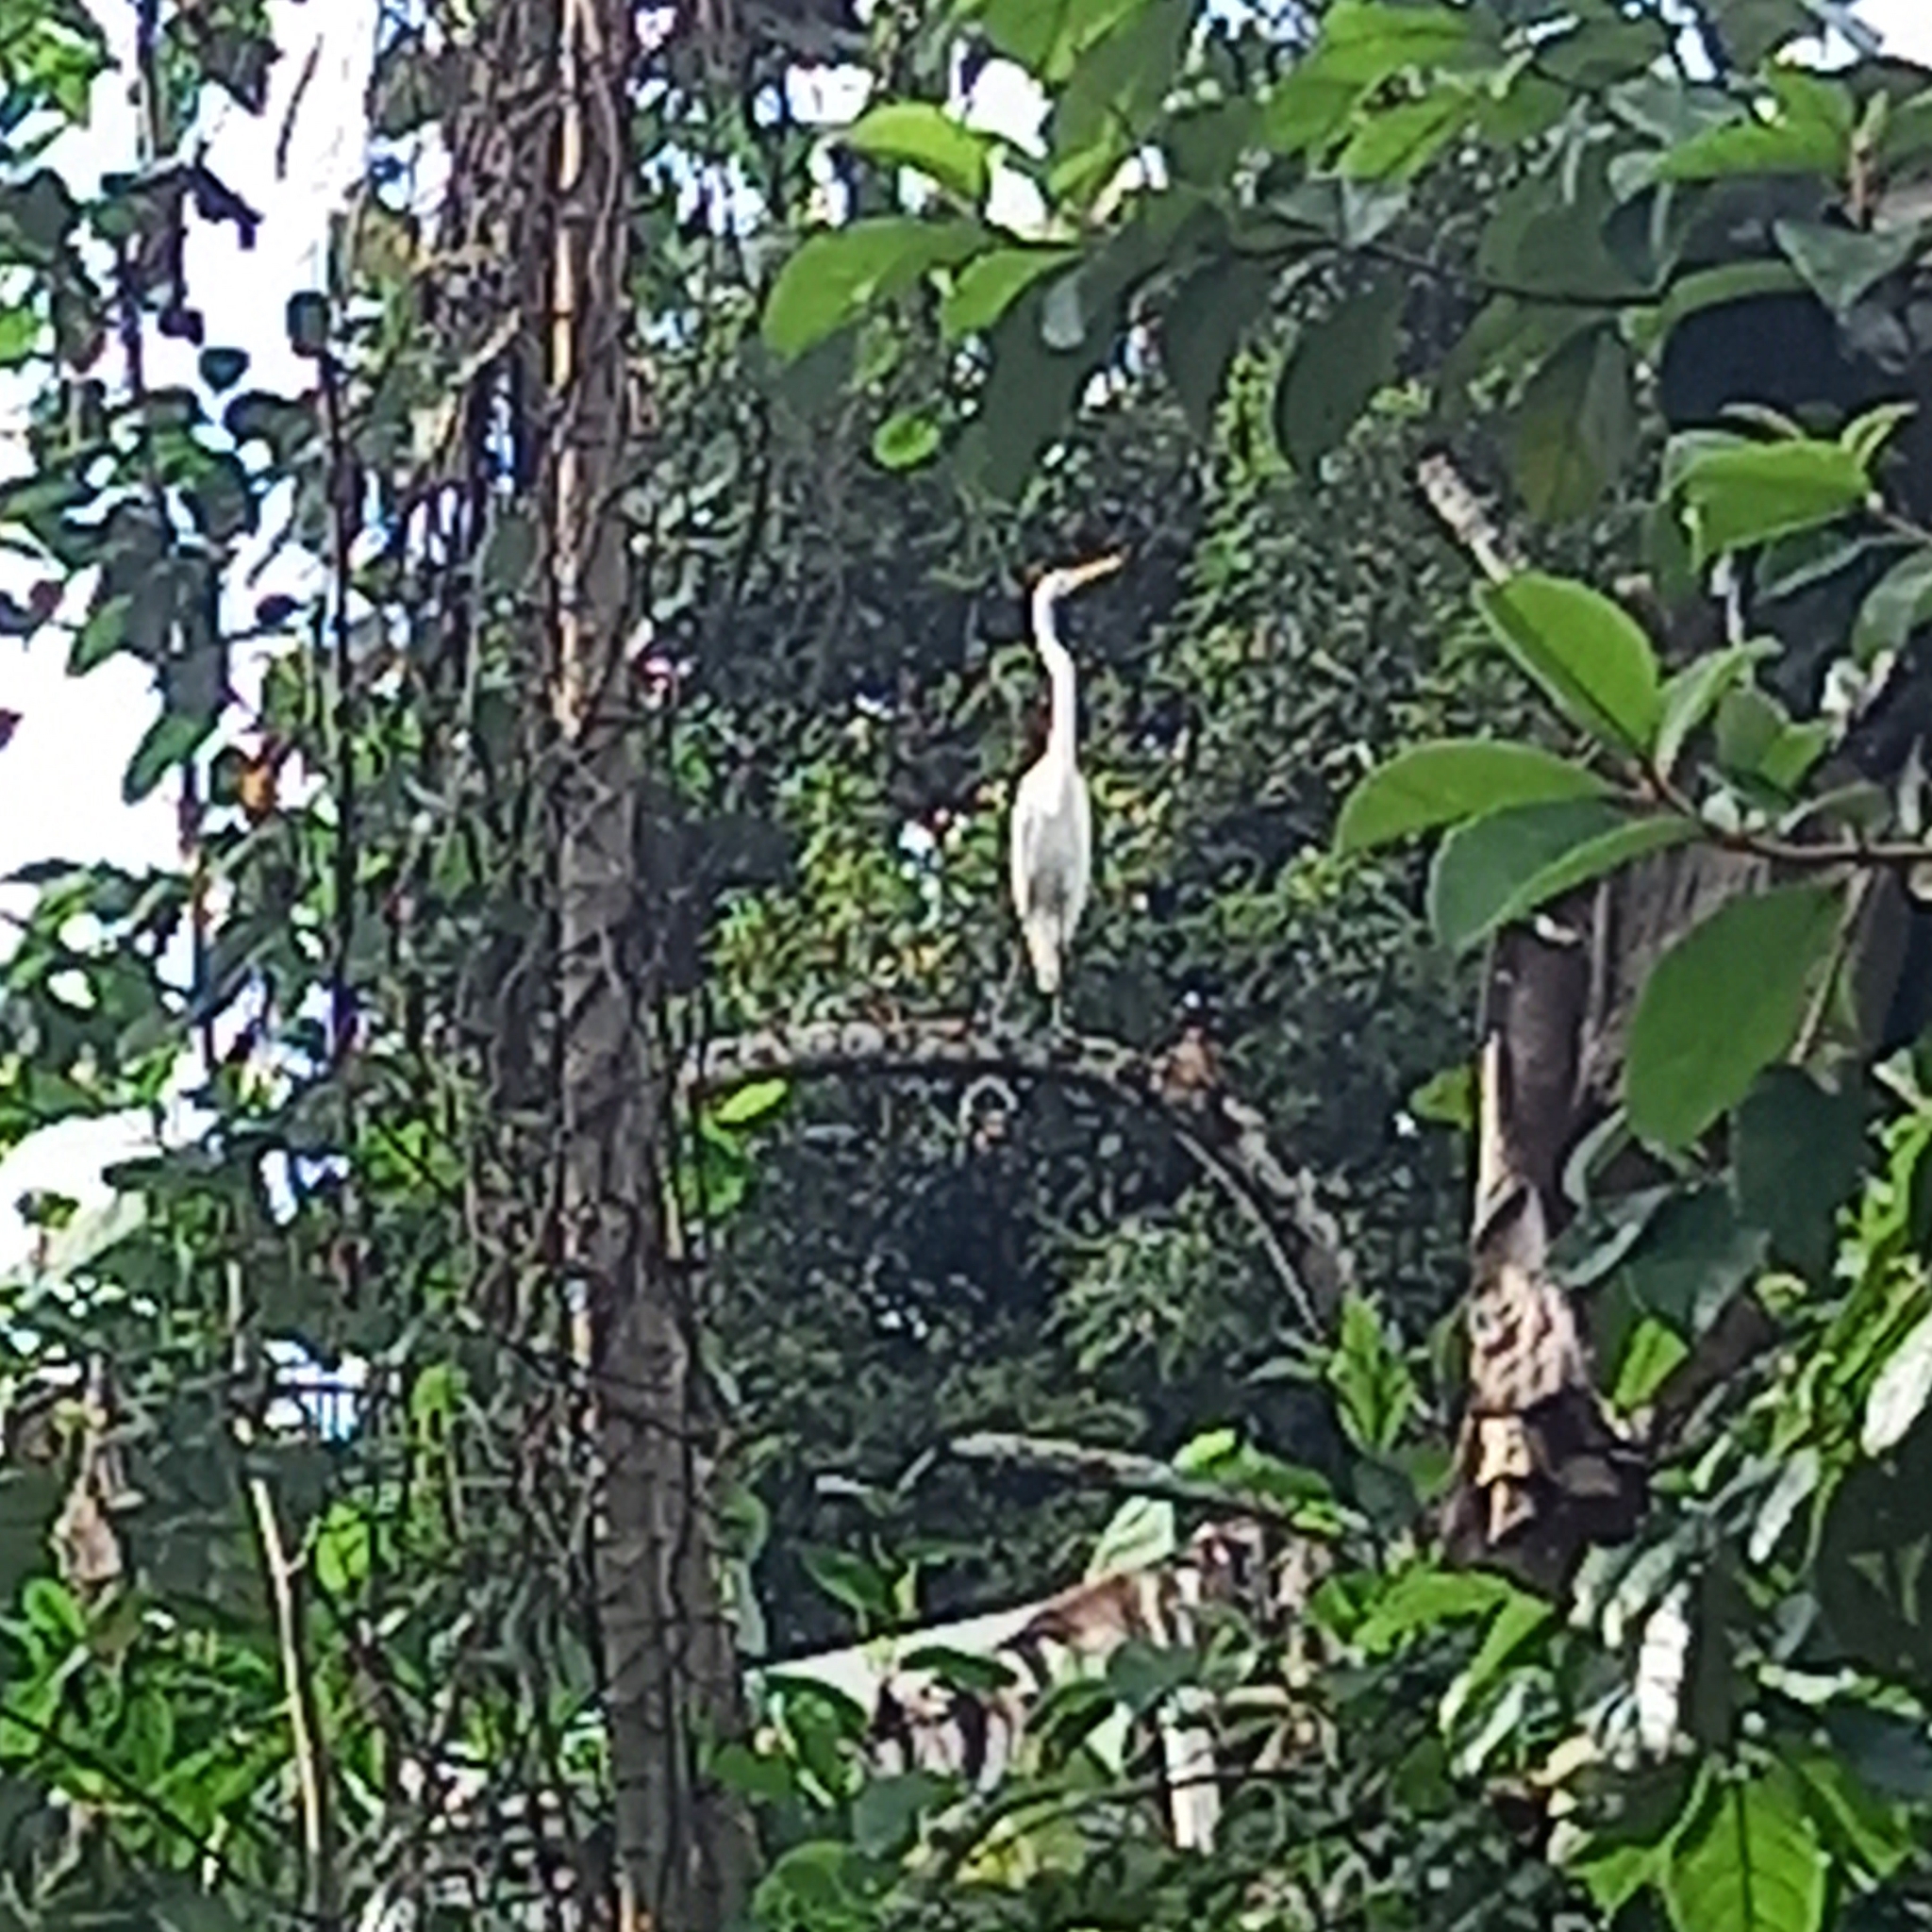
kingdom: Animalia
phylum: Chordata
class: Aves
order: Pelecaniformes
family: Ardeidae
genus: Ardea
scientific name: Ardea alba
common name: Great egret
